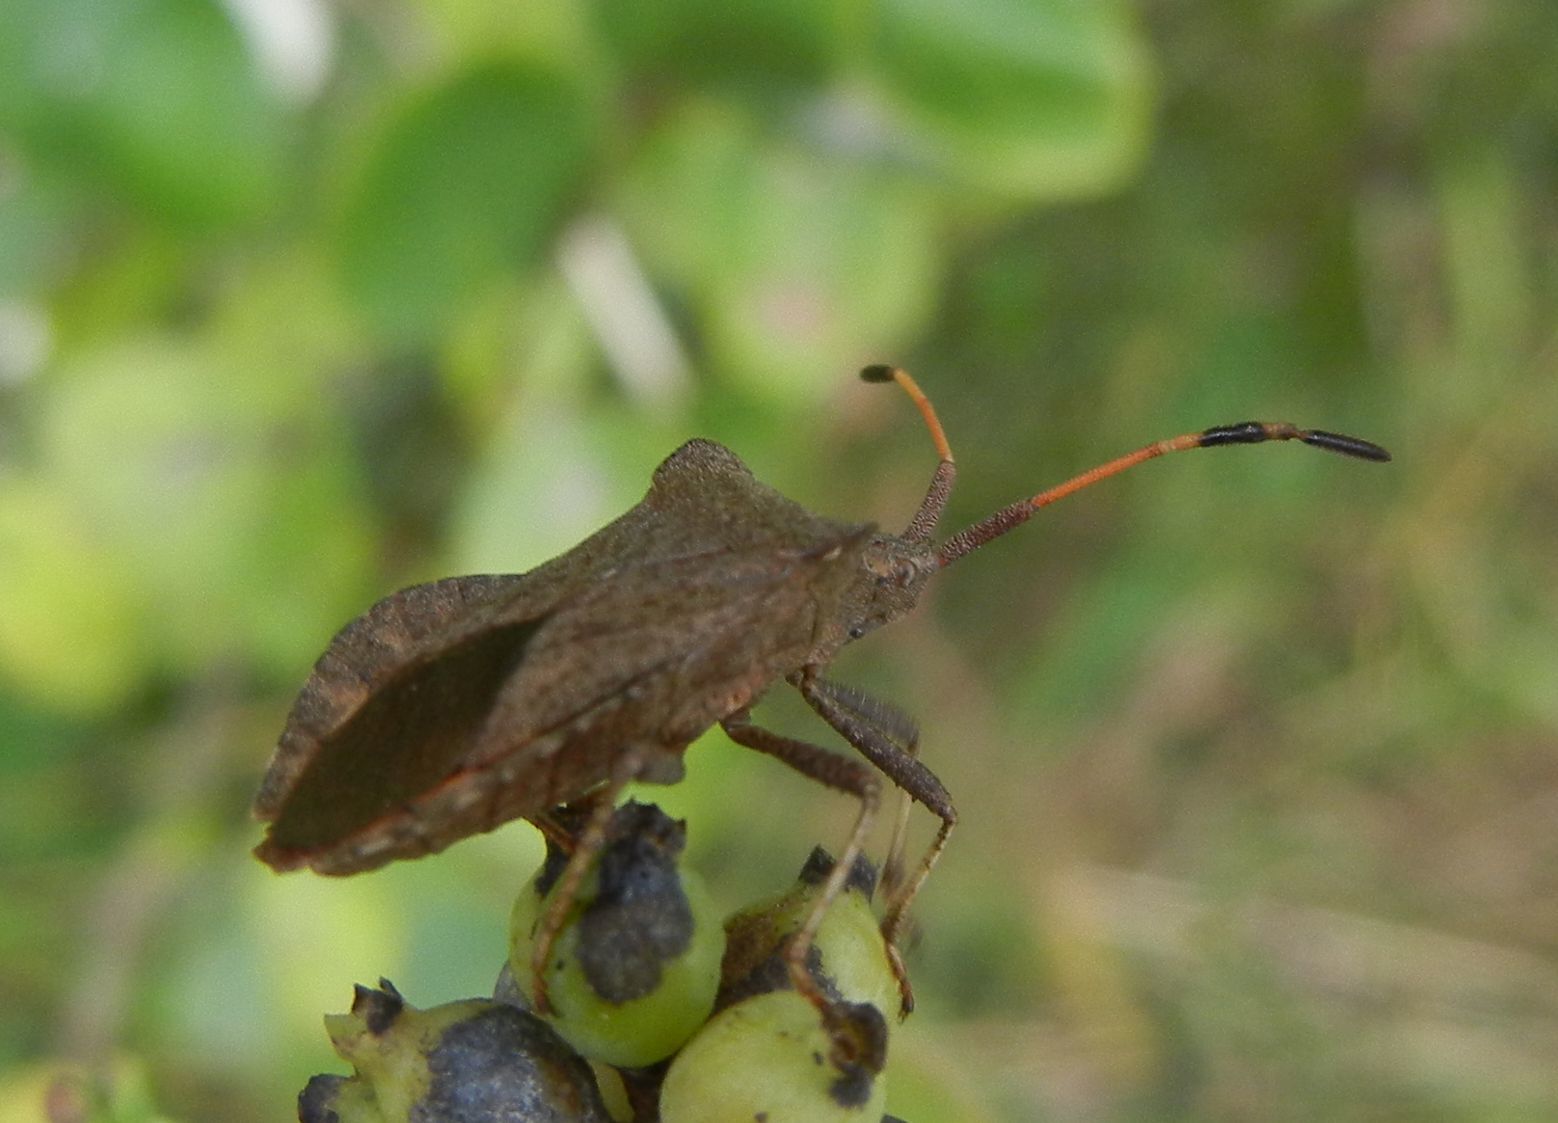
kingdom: Animalia
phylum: Arthropoda
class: Insecta
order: Hemiptera
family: Coreidae
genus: Coreus
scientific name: Coreus marginatus
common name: Dock bug
